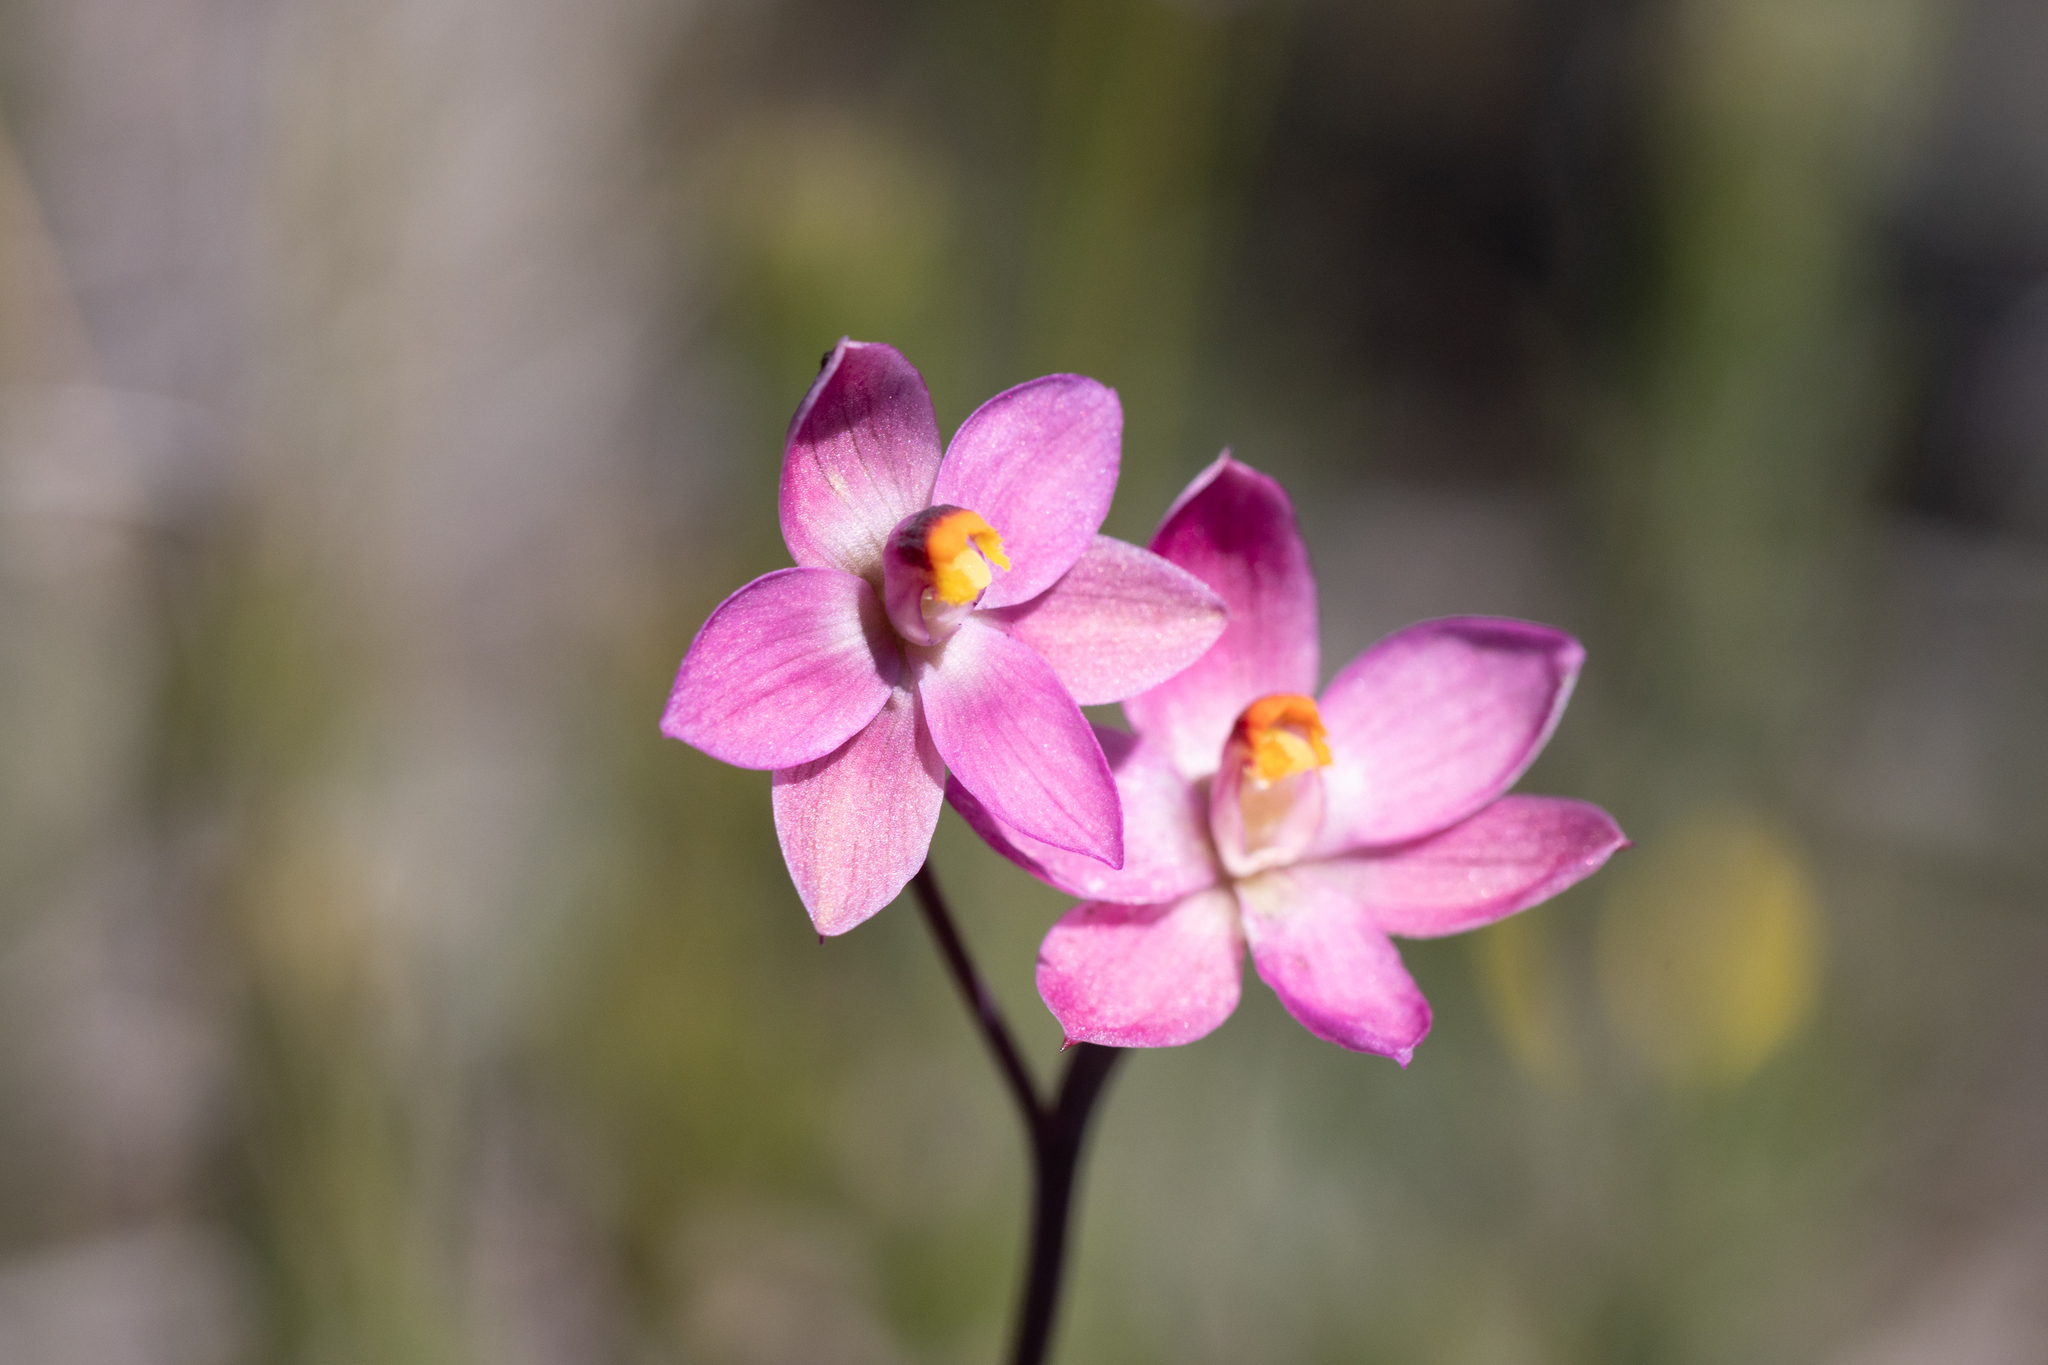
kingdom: Plantae
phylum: Tracheophyta
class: Liliopsida
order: Asparagales
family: Orchidaceae
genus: Thelymitra
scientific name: Thelymitra rubra
